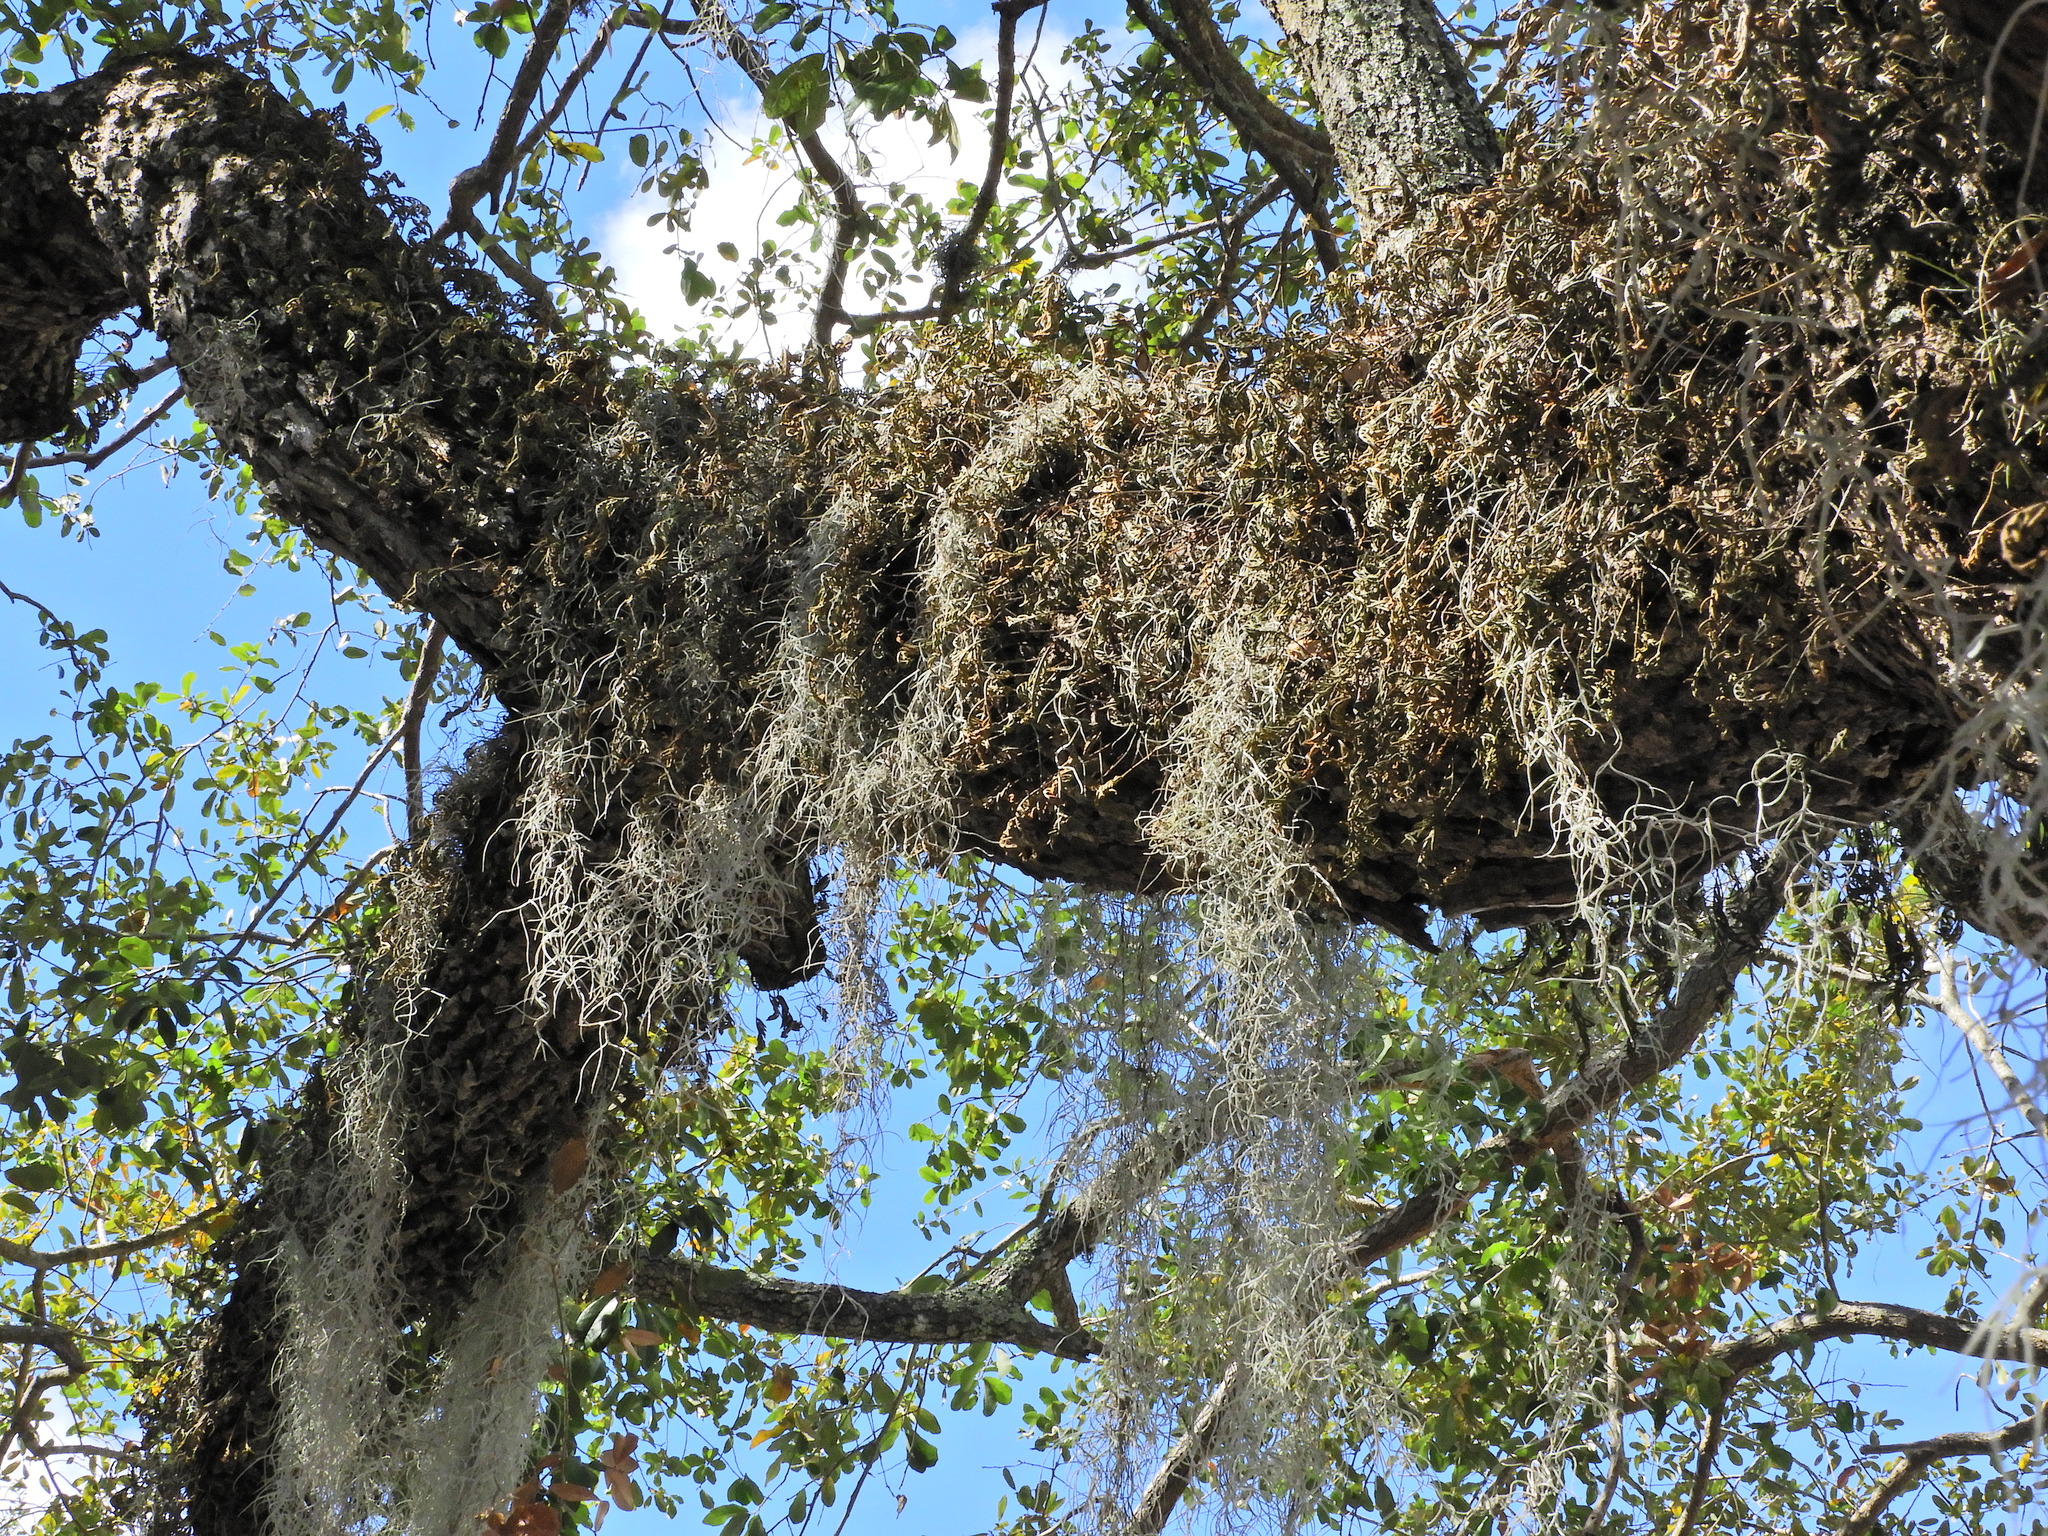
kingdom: Plantae
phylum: Tracheophyta
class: Liliopsida
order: Poales
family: Bromeliaceae
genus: Tillandsia
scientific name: Tillandsia usneoides
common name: Spanish moss
